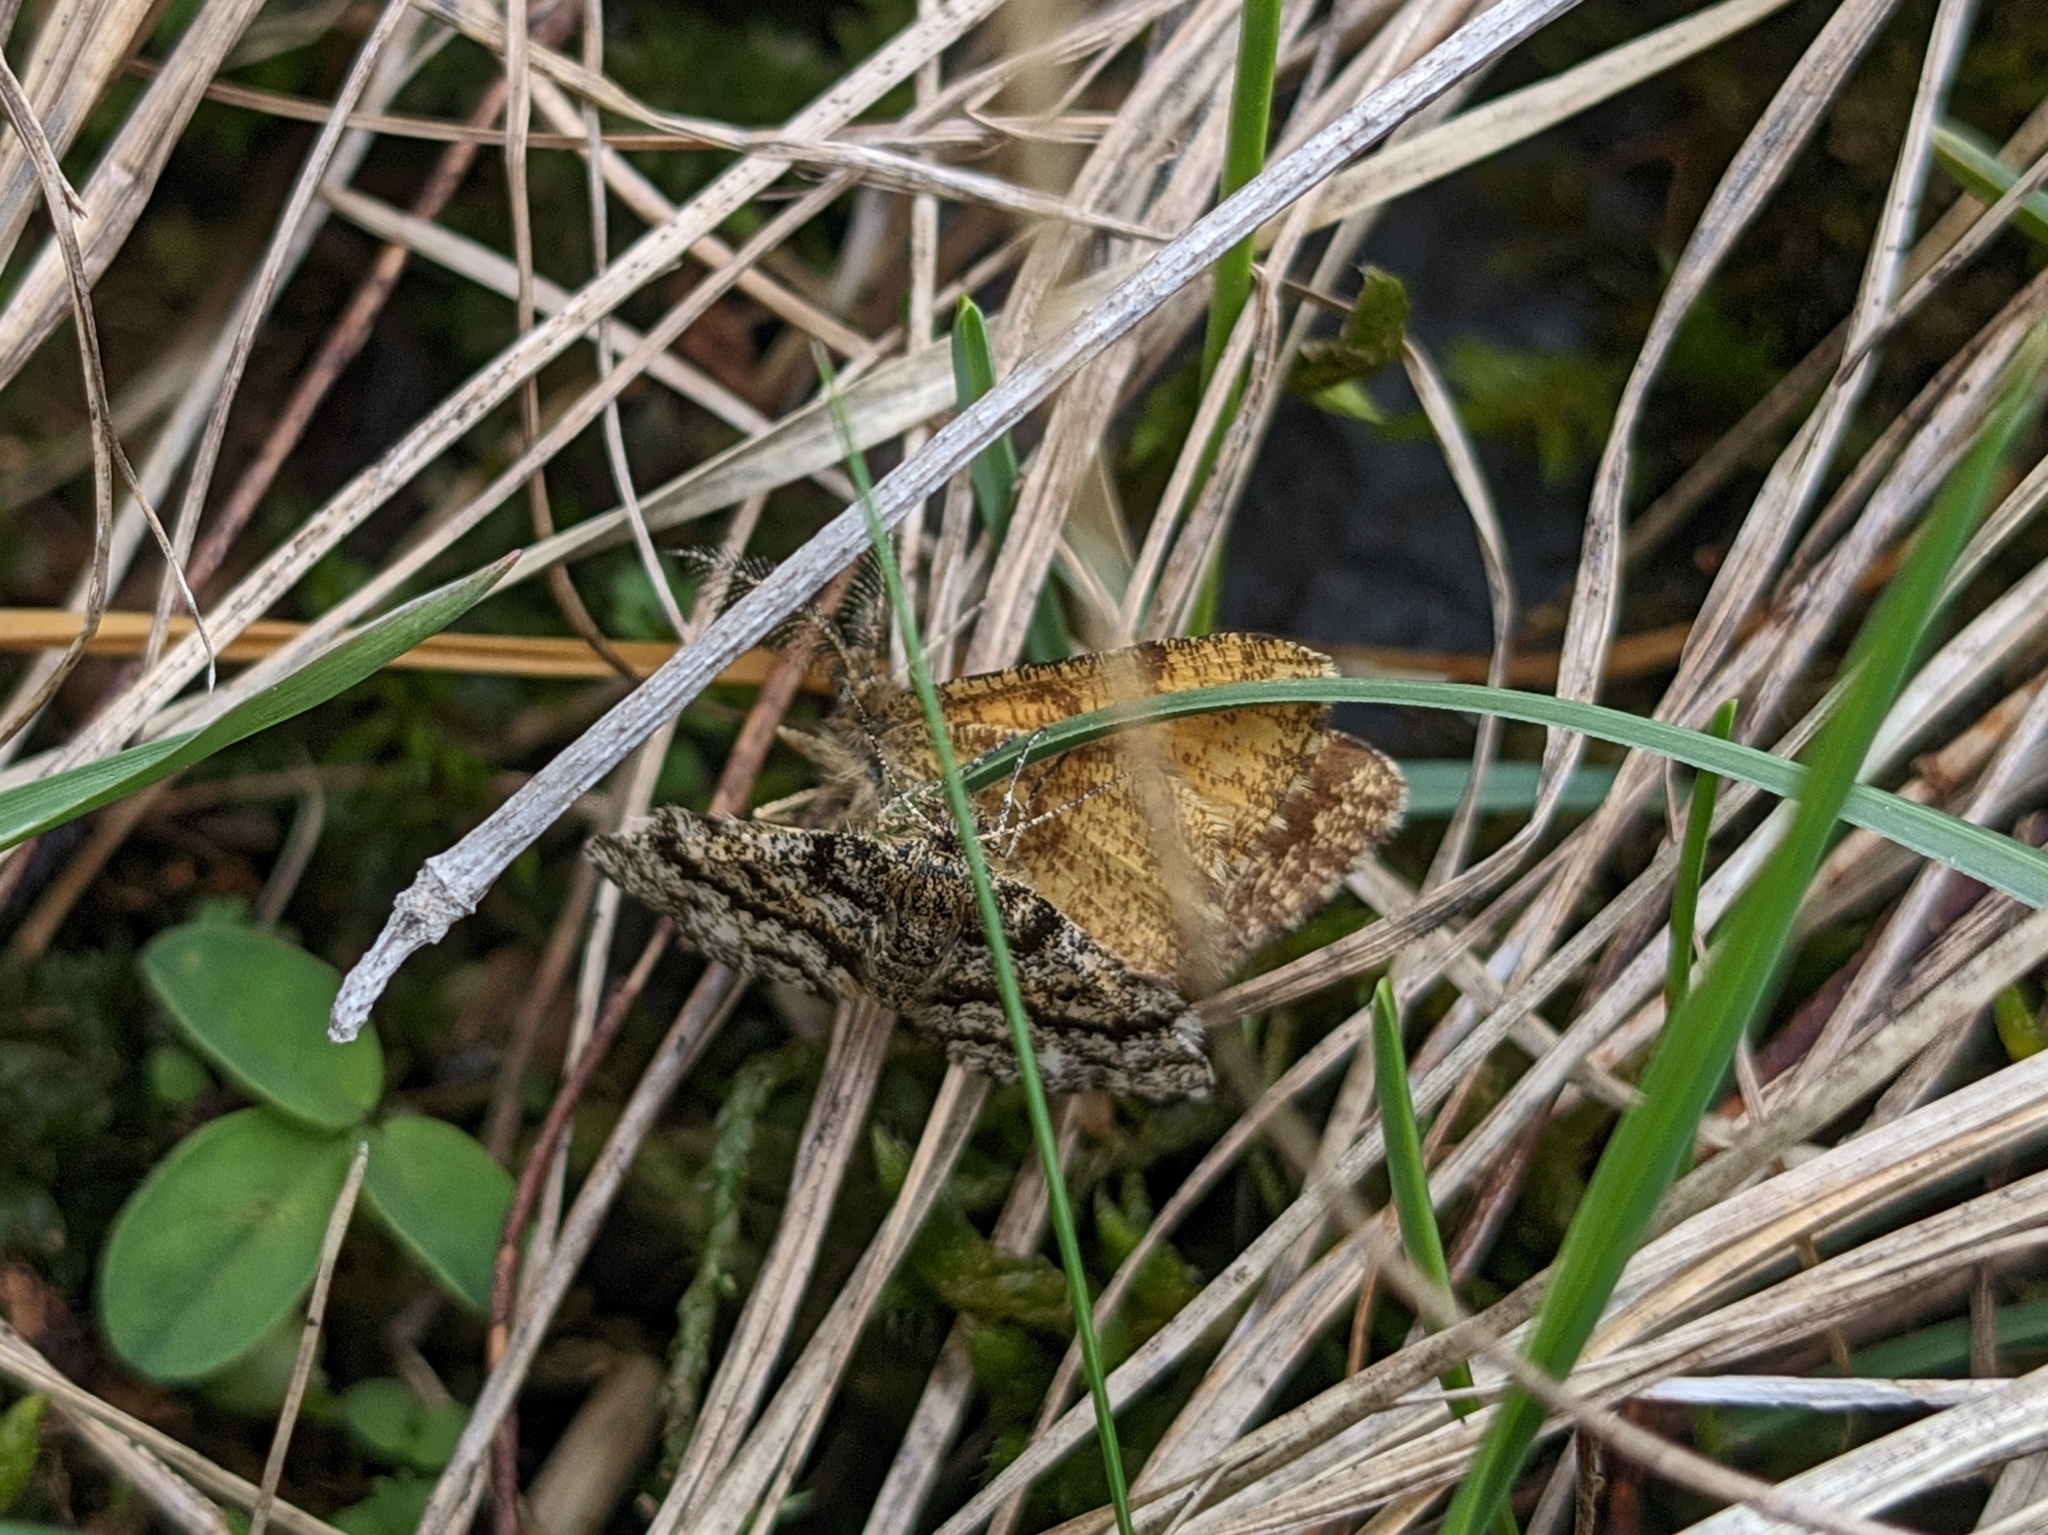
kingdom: Animalia
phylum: Arthropoda
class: Insecta
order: Lepidoptera
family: Geometridae
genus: Ematurga
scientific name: Ematurga atomaria
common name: Common heath
